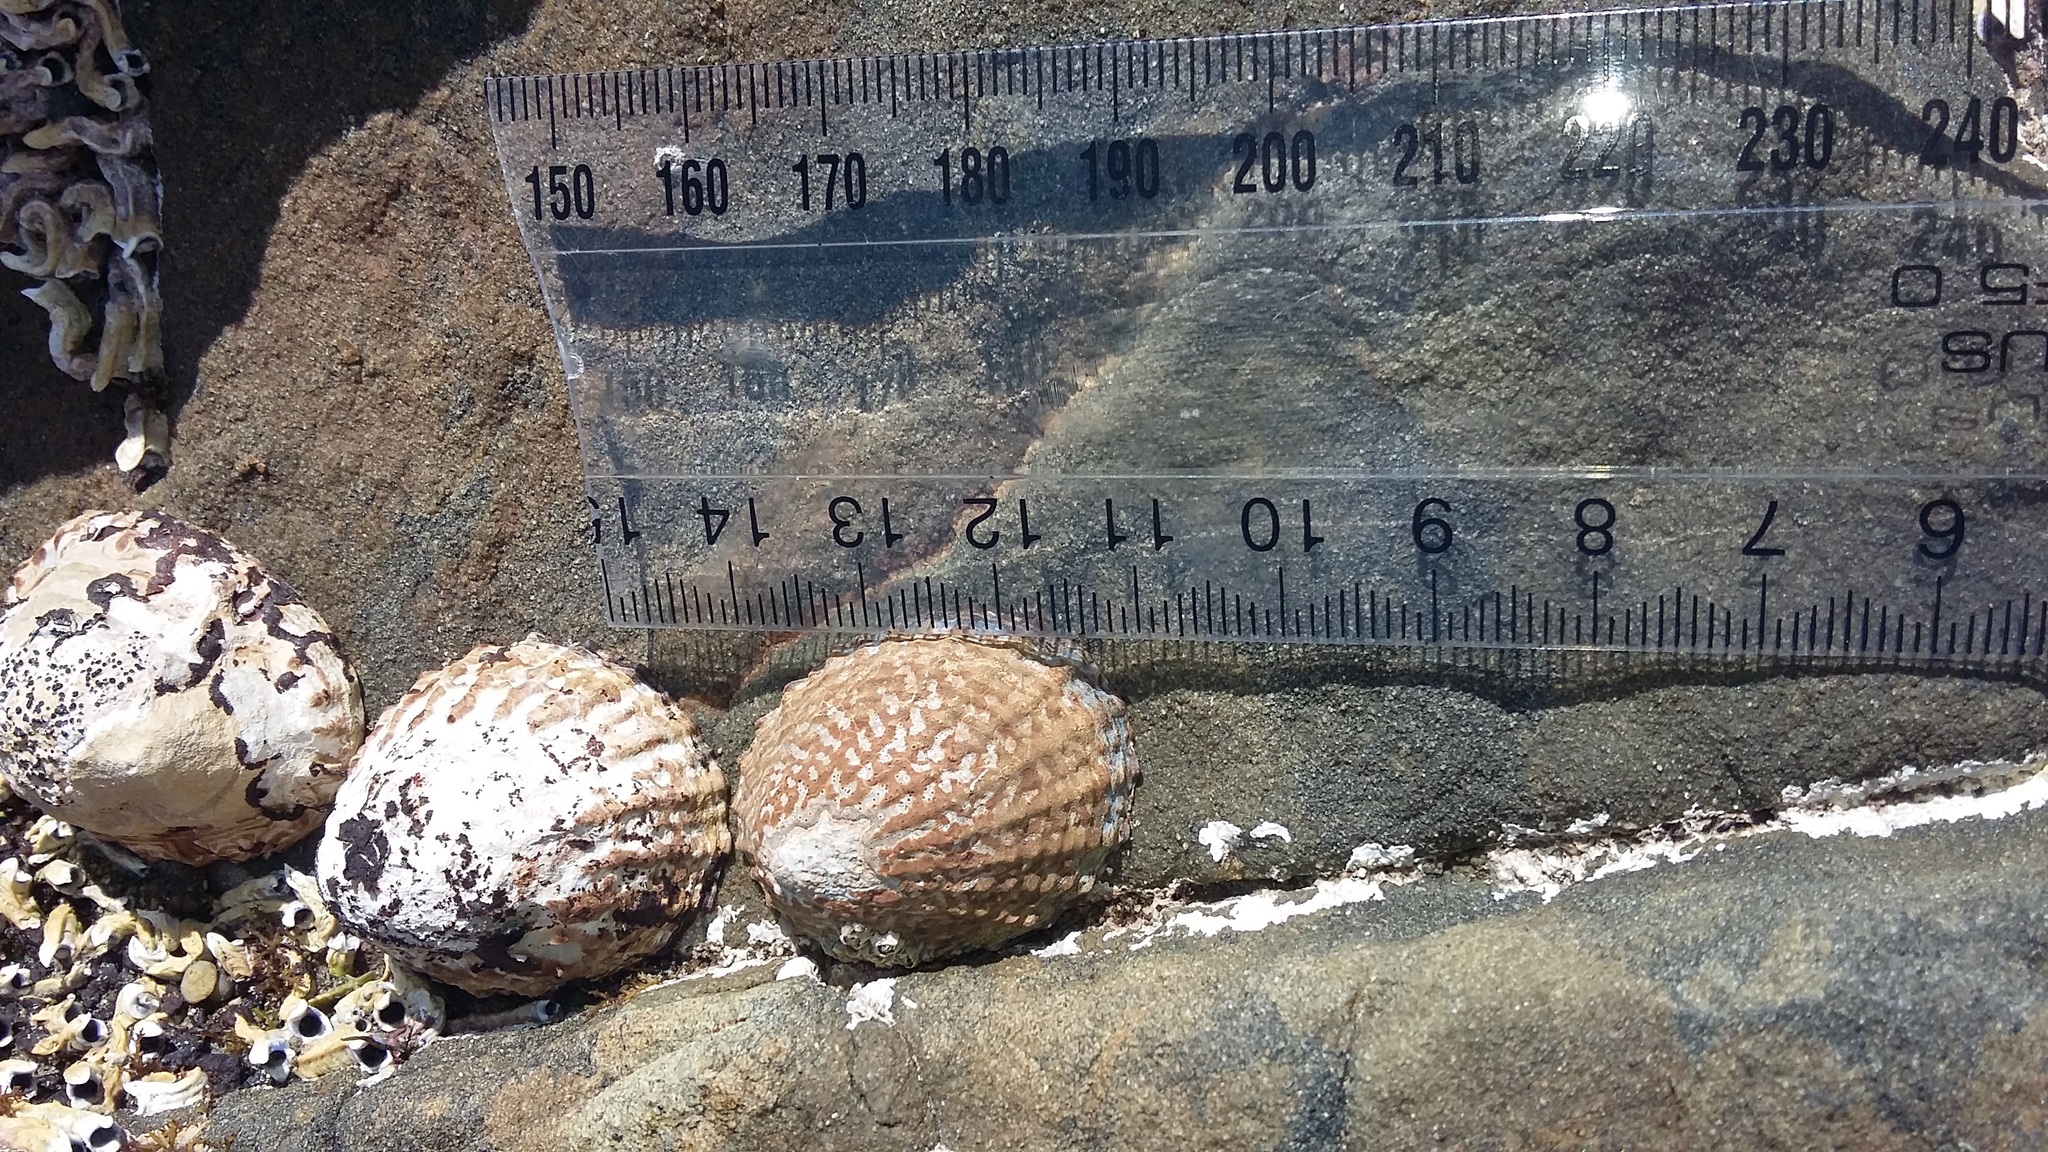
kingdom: Animalia
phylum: Mollusca
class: Gastropoda
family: Nacellidae
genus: Cellana
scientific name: Cellana denticulata
